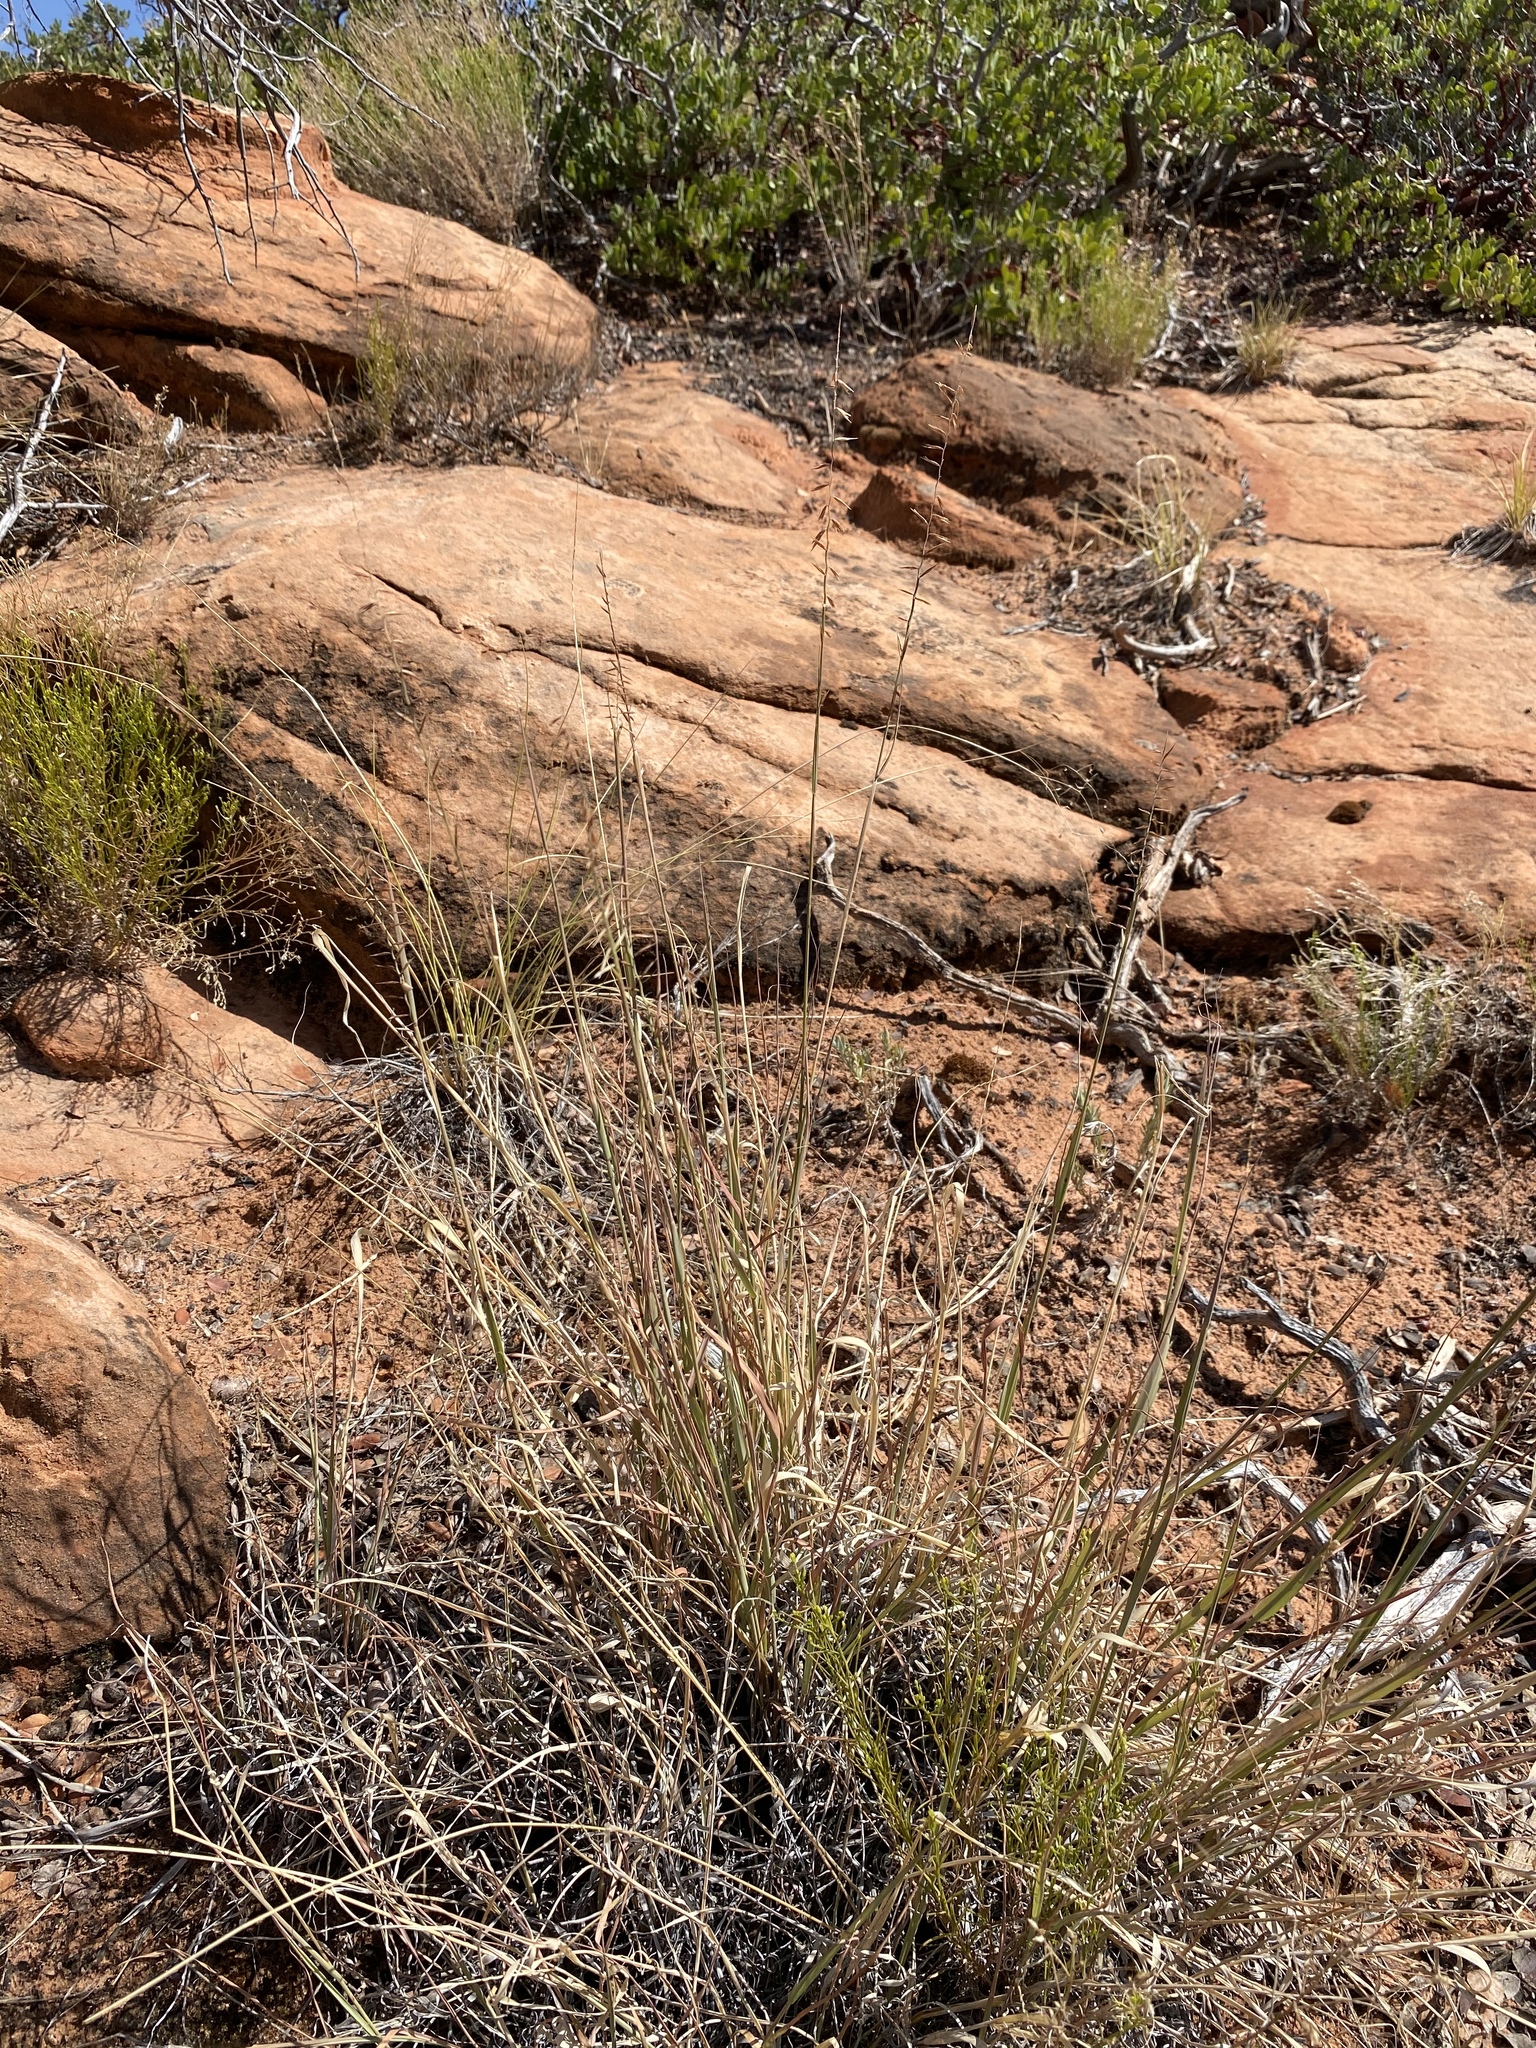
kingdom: Plantae
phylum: Tracheophyta
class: Liliopsida
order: Poales
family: Poaceae
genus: Bouteloua
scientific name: Bouteloua curtipendula
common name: Side-oats grama
